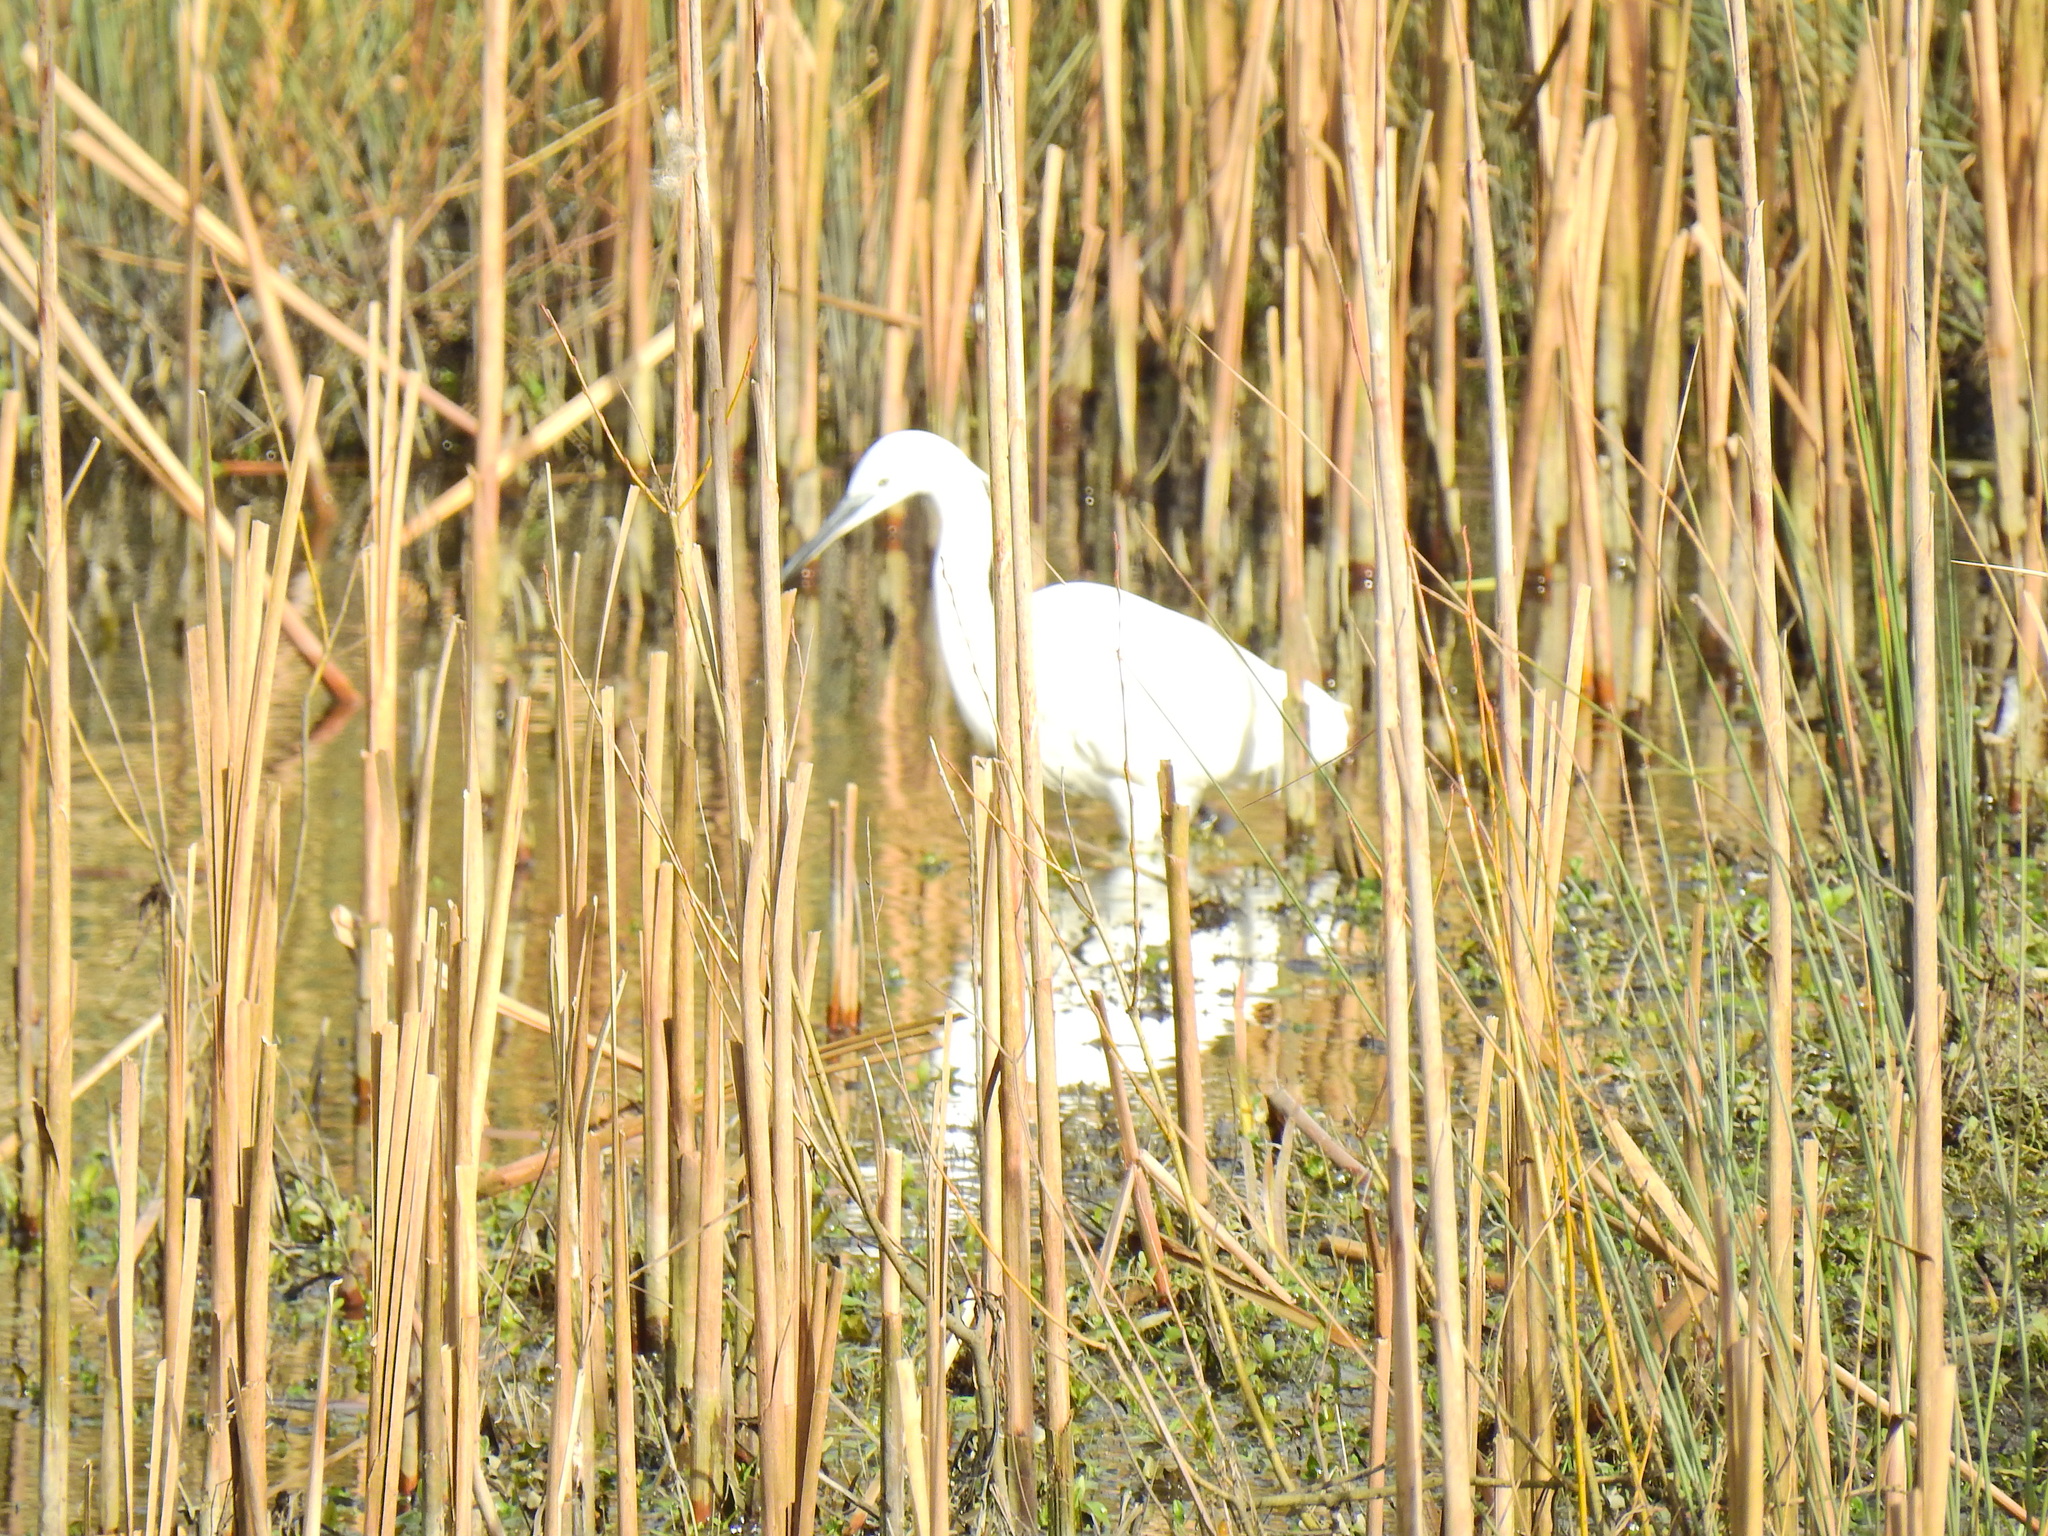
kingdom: Animalia
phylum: Chordata
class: Aves
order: Pelecaniformes
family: Ardeidae
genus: Egretta
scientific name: Egretta garzetta
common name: Little egret
